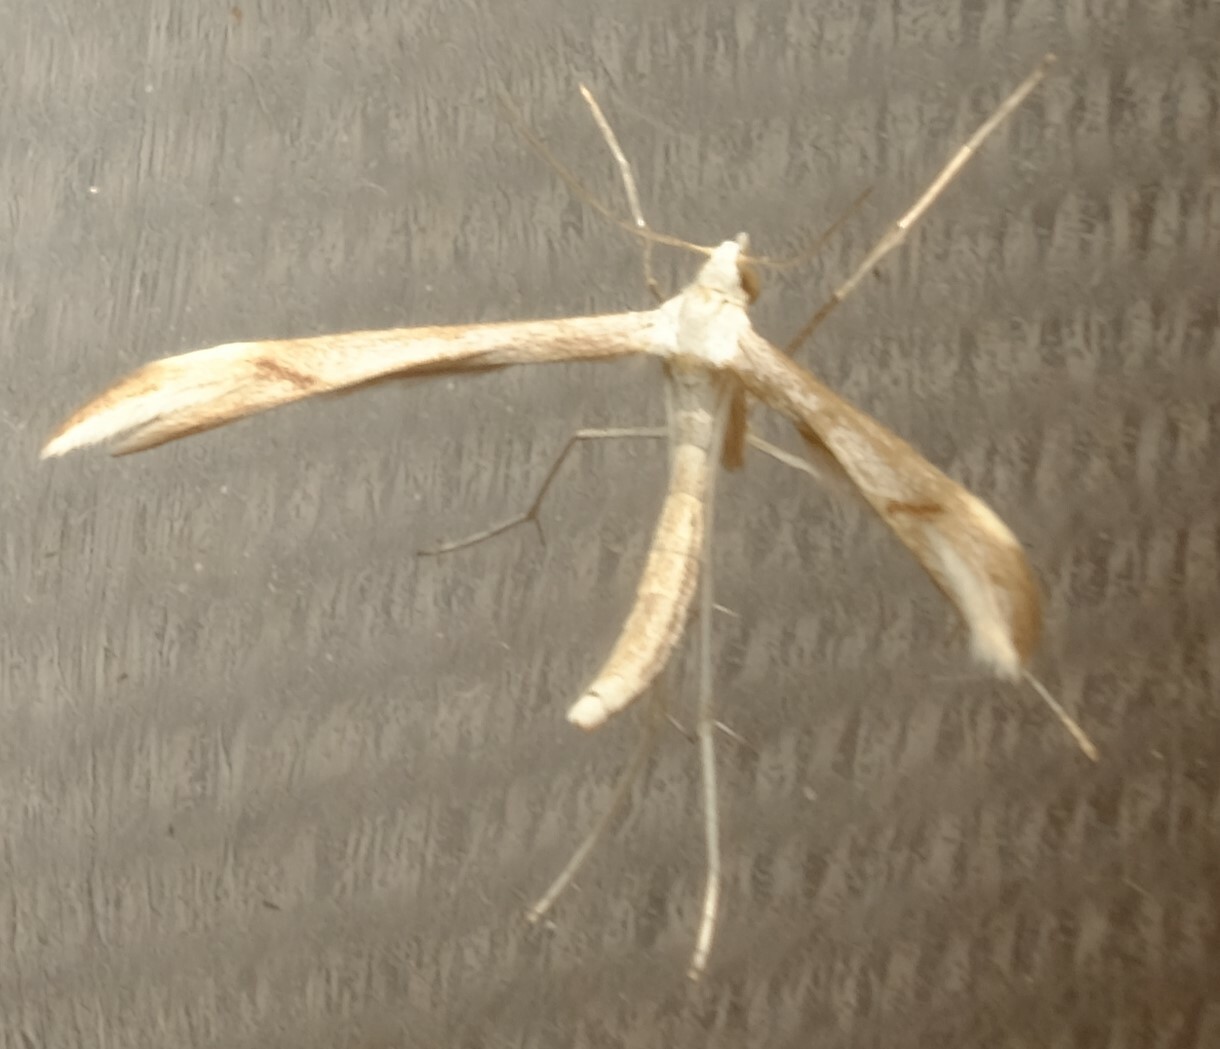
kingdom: Animalia
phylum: Arthropoda
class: Insecta
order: Lepidoptera
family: Pterophoridae
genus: Platyptilia
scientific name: Platyptilia celidotus
